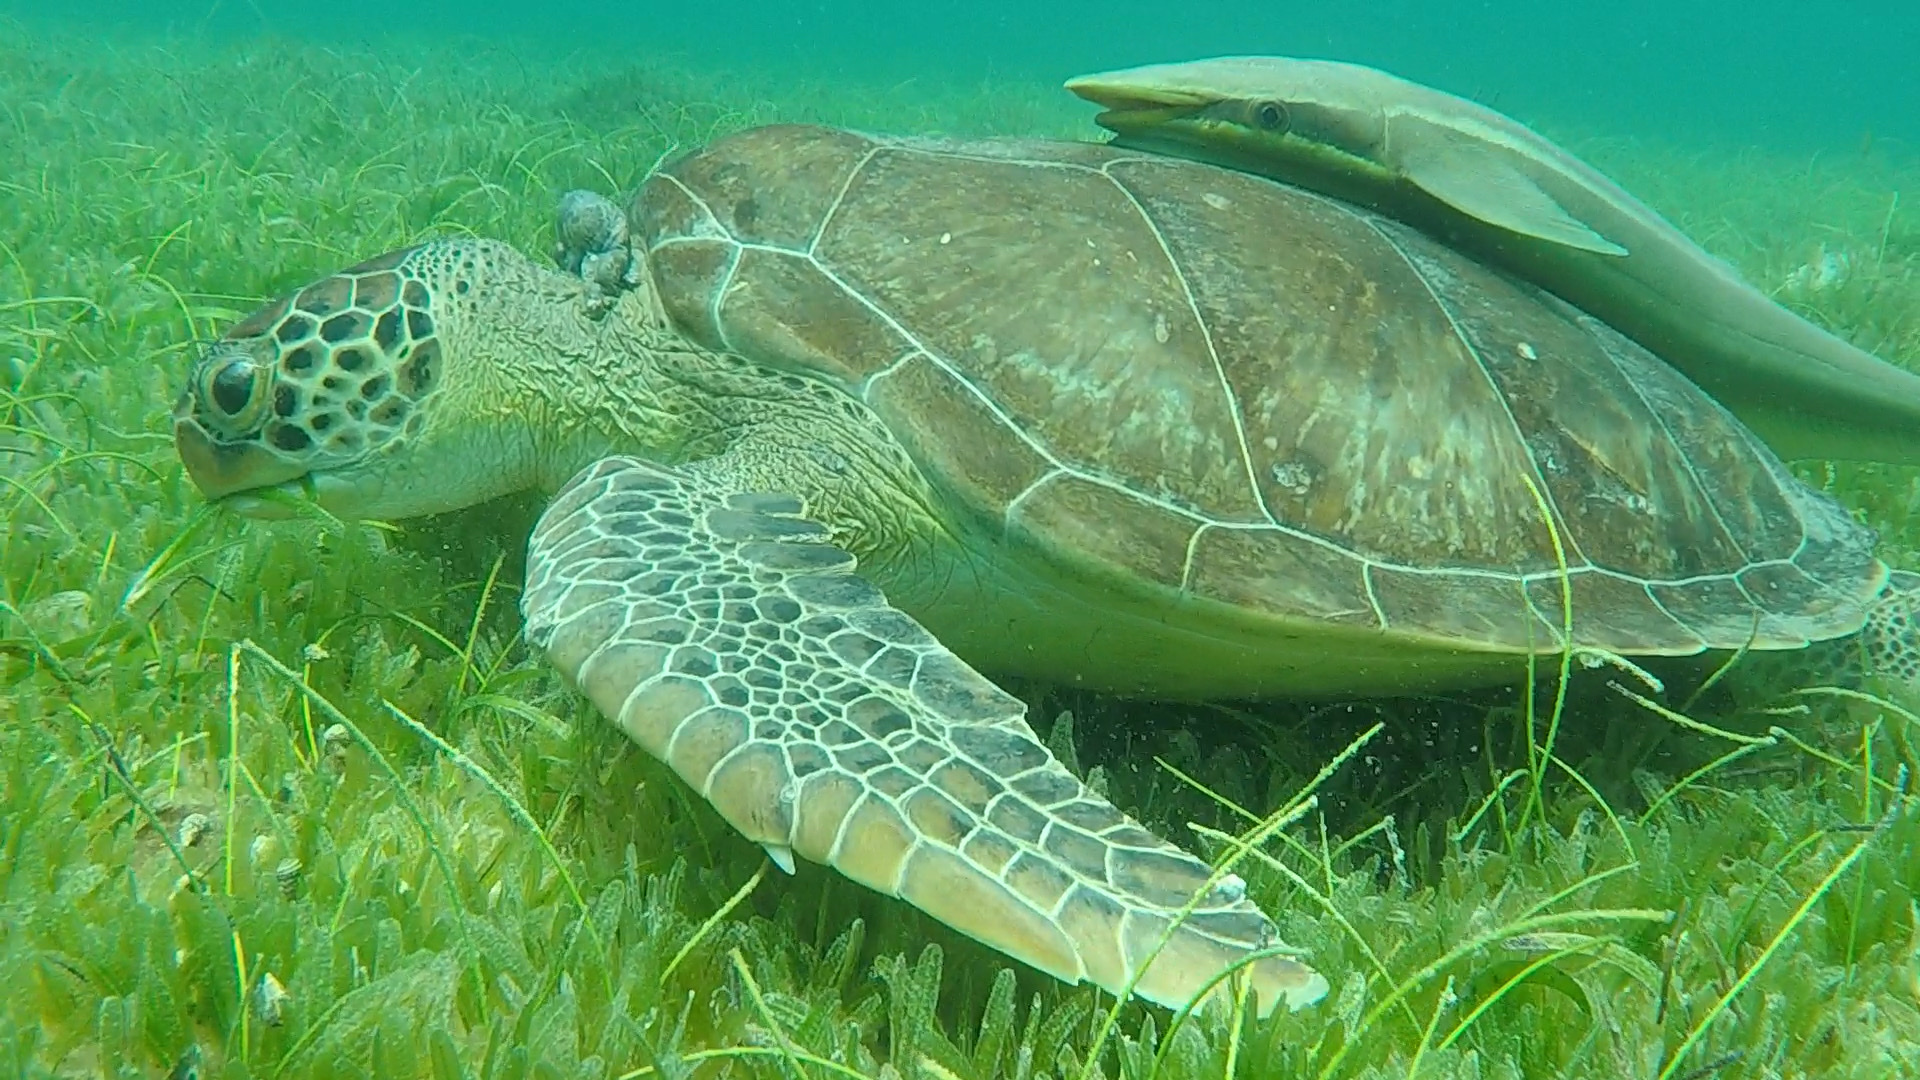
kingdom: Animalia
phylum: Chordata
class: Testudines
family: Cheloniidae
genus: Chelonia
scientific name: Chelonia mydas
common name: Green turtle
